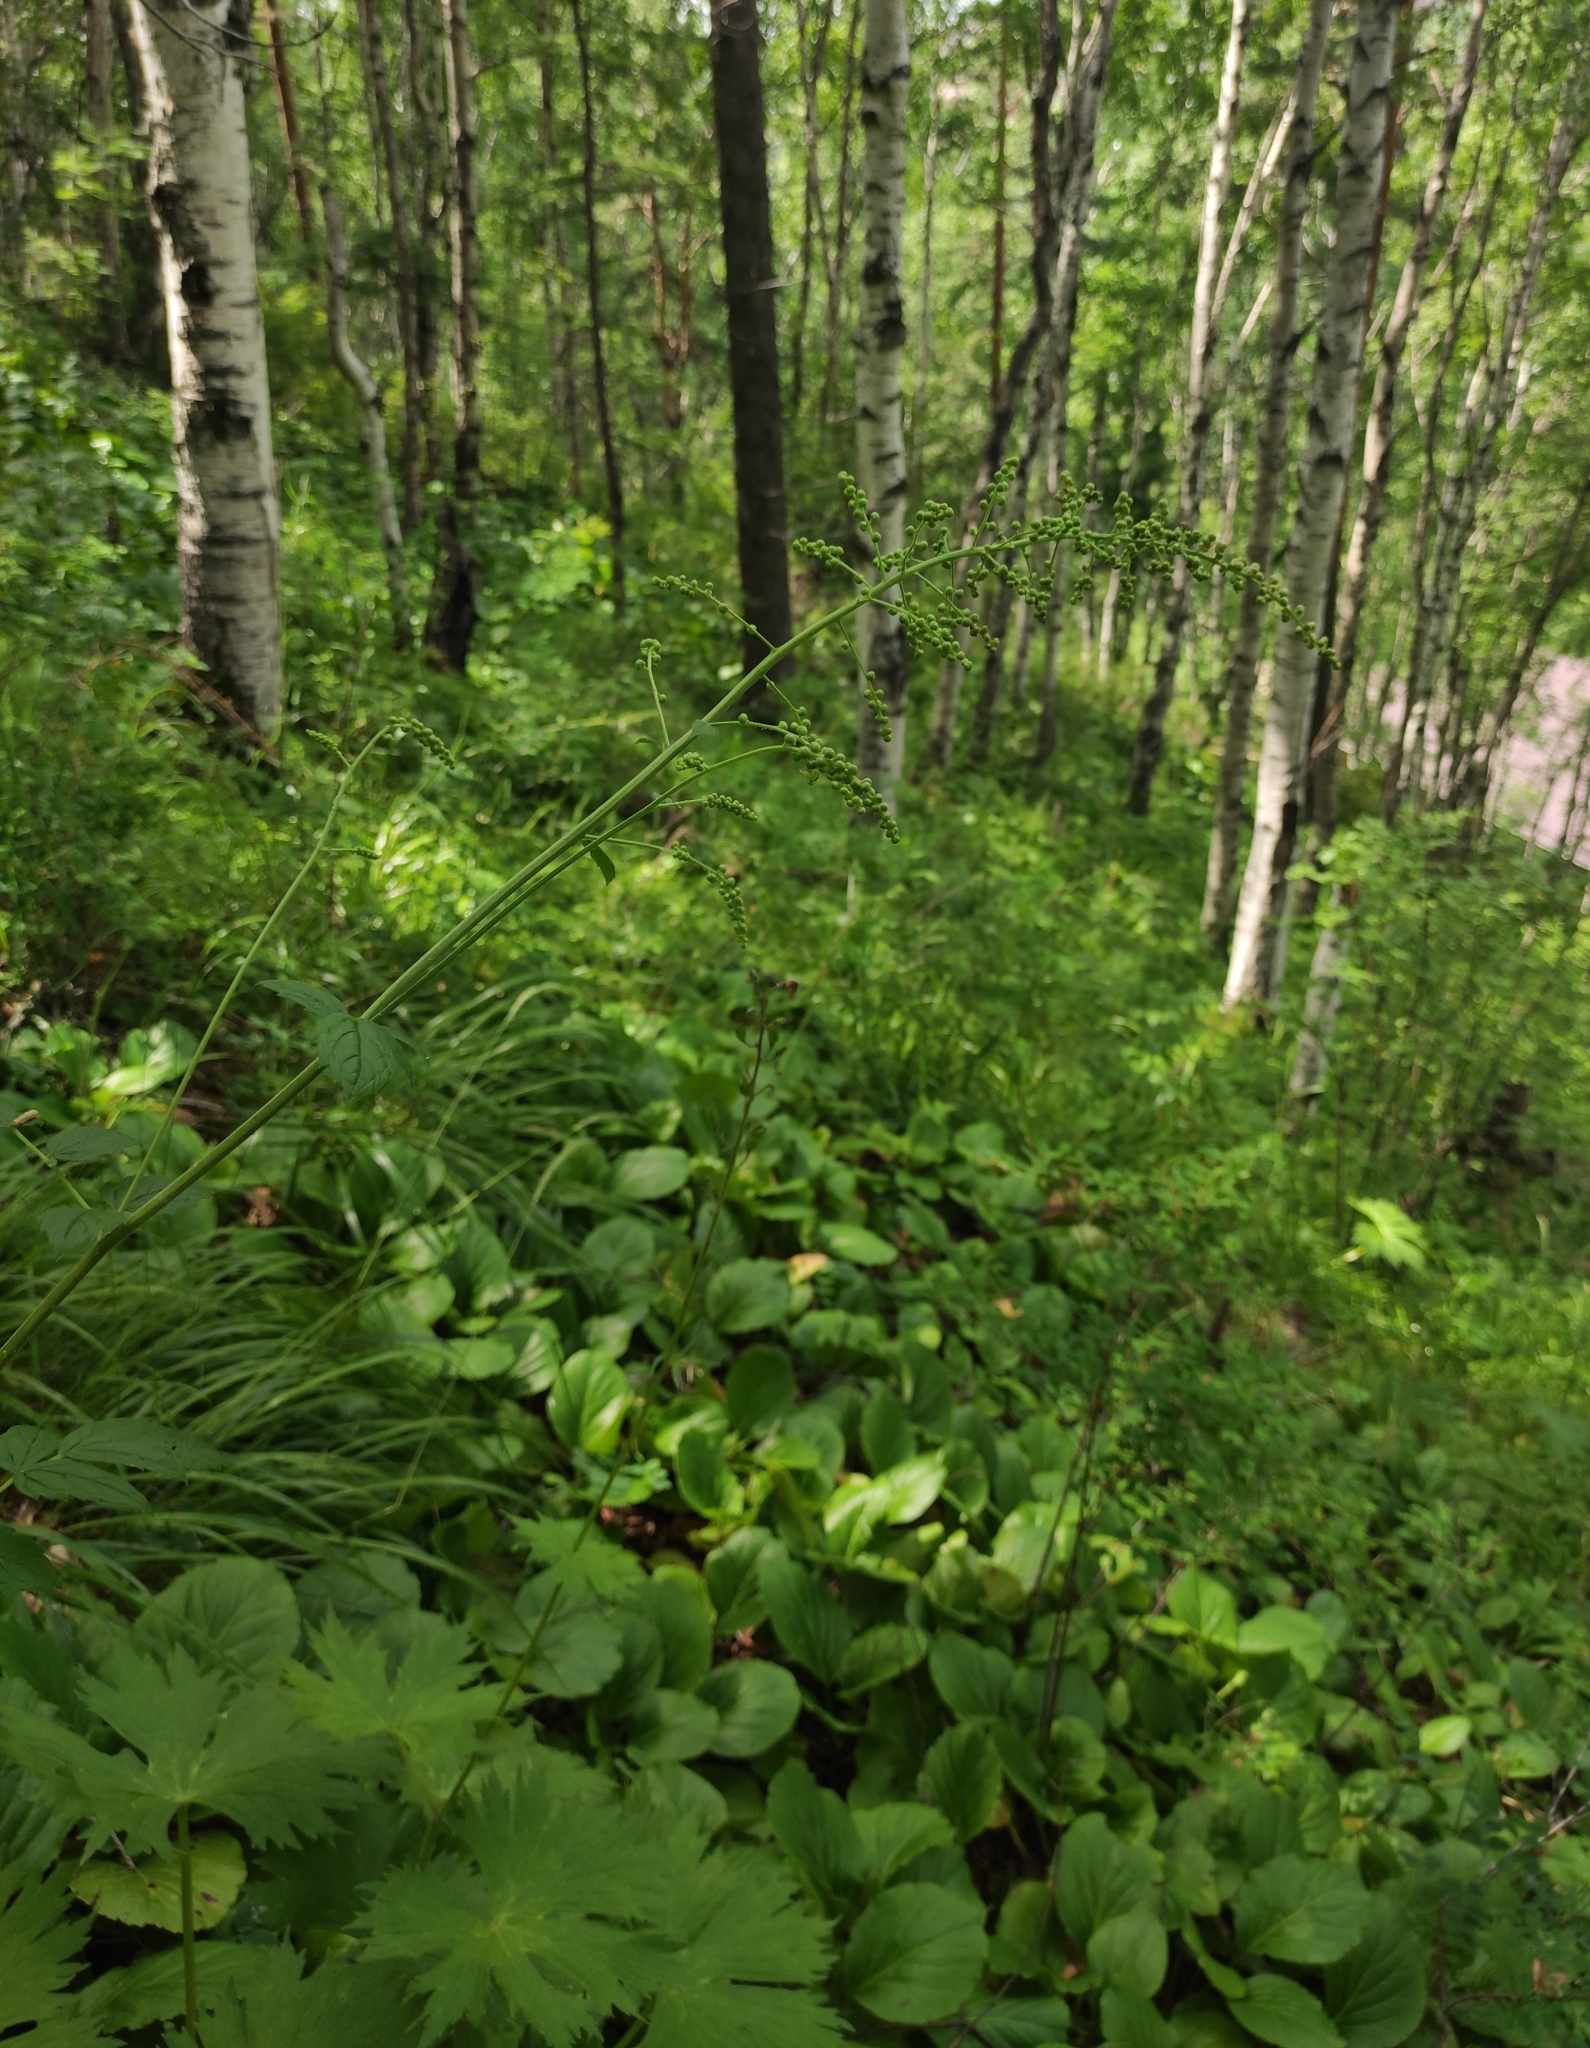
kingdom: Plantae
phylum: Tracheophyta
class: Magnoliopsida
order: Ranunculales
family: Ranunculaceae
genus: Actaea
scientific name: Actaea cimicifuga
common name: Chinese cimicifuga
